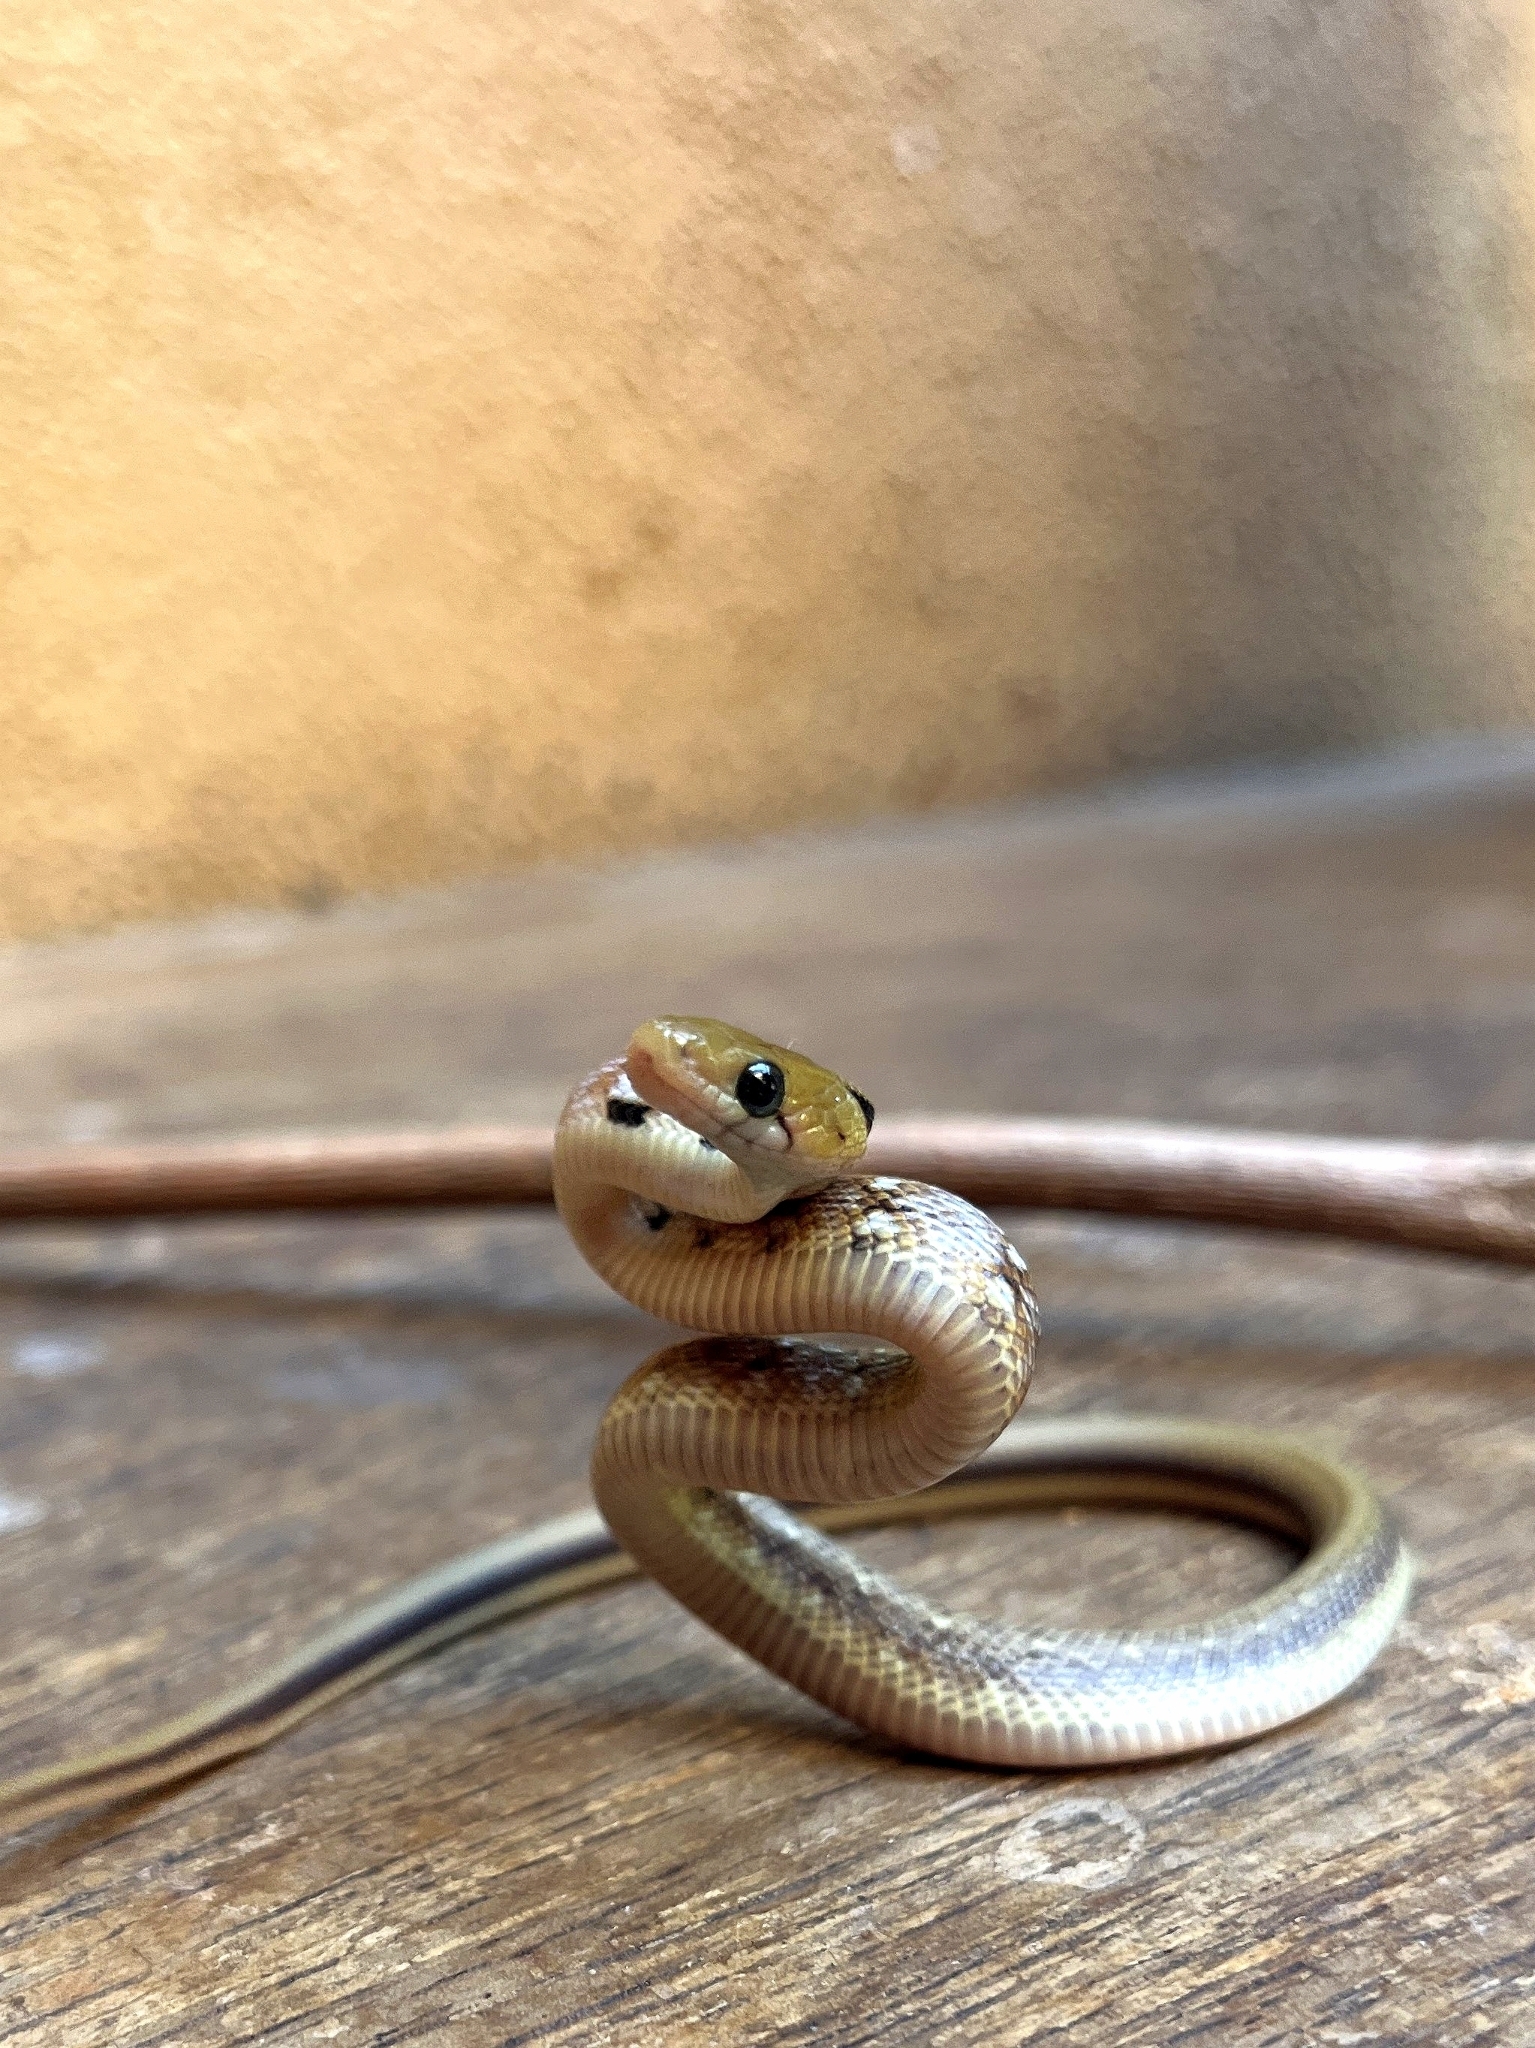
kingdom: Animalia
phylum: Chordata
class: Squamata
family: Colubridae
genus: Coelognathus
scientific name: Coelognathus helena
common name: Trinket snake
